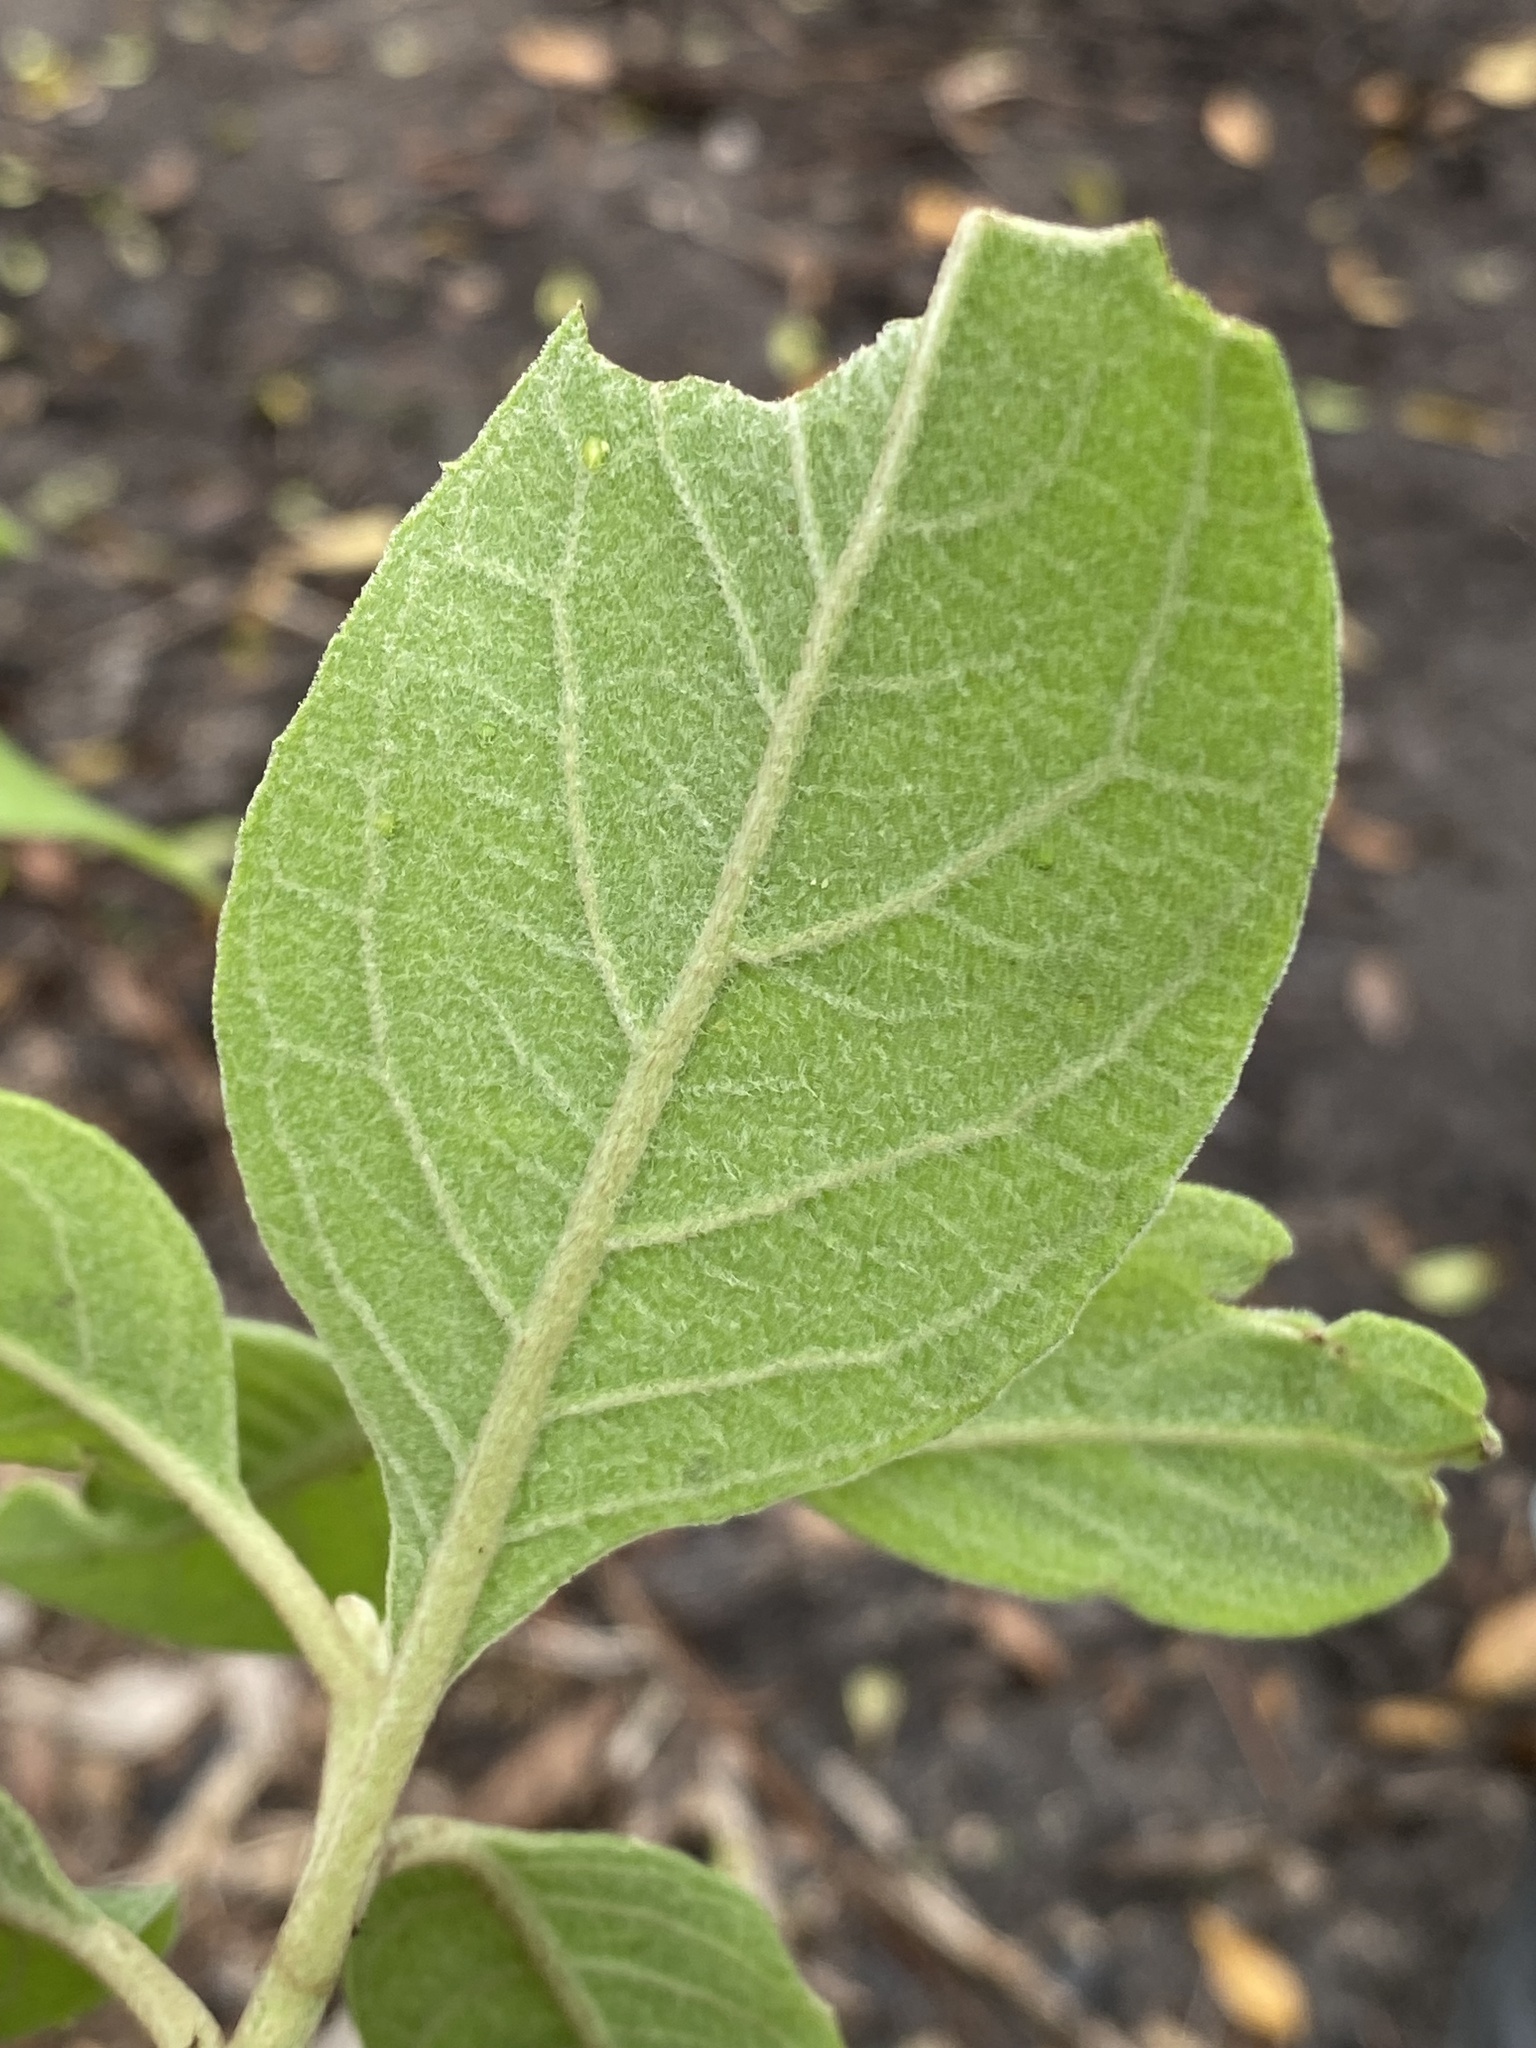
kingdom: Plantae
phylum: Tracheophyta
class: Magnoliopsida
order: Asterales
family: Asteraceae
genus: Pluchea
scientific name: Pluchea carolinensis
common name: Marsh fleabane
